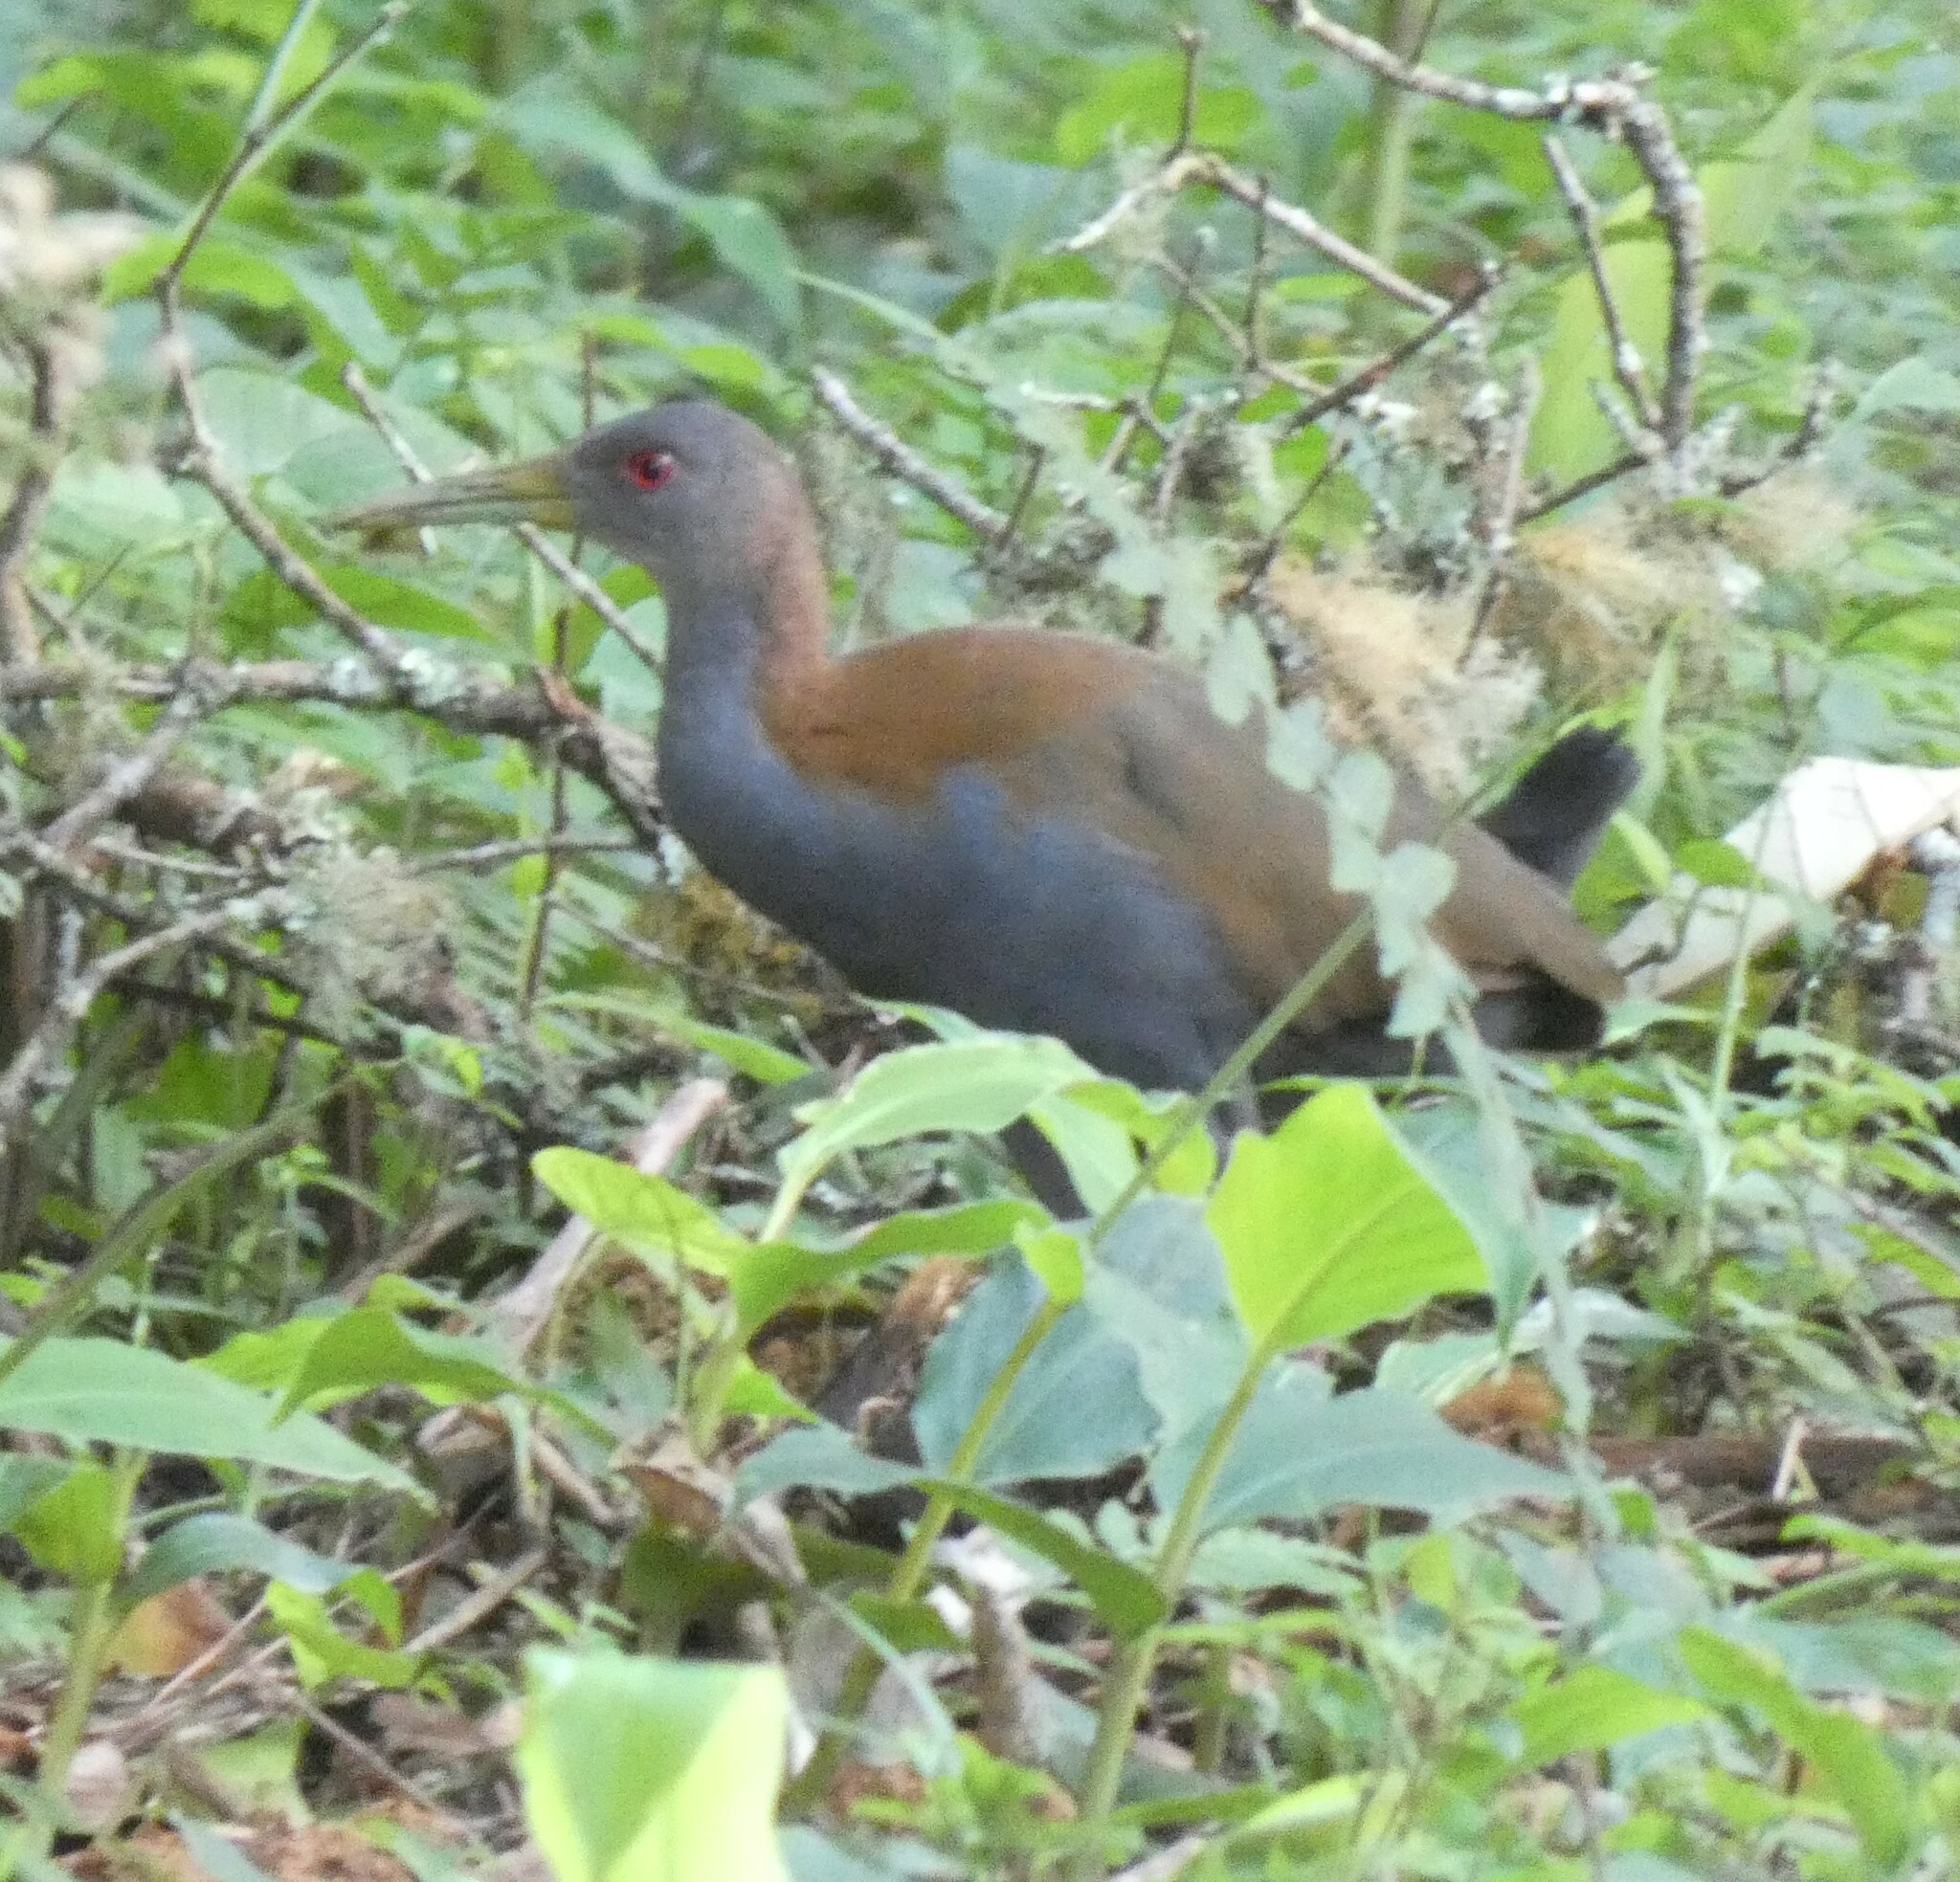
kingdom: Animalia
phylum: Chordata
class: Aves
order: Gruiformes
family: Rallidae
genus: Aramides
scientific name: Aramides saracura
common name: Slaty-breasted wood rail
